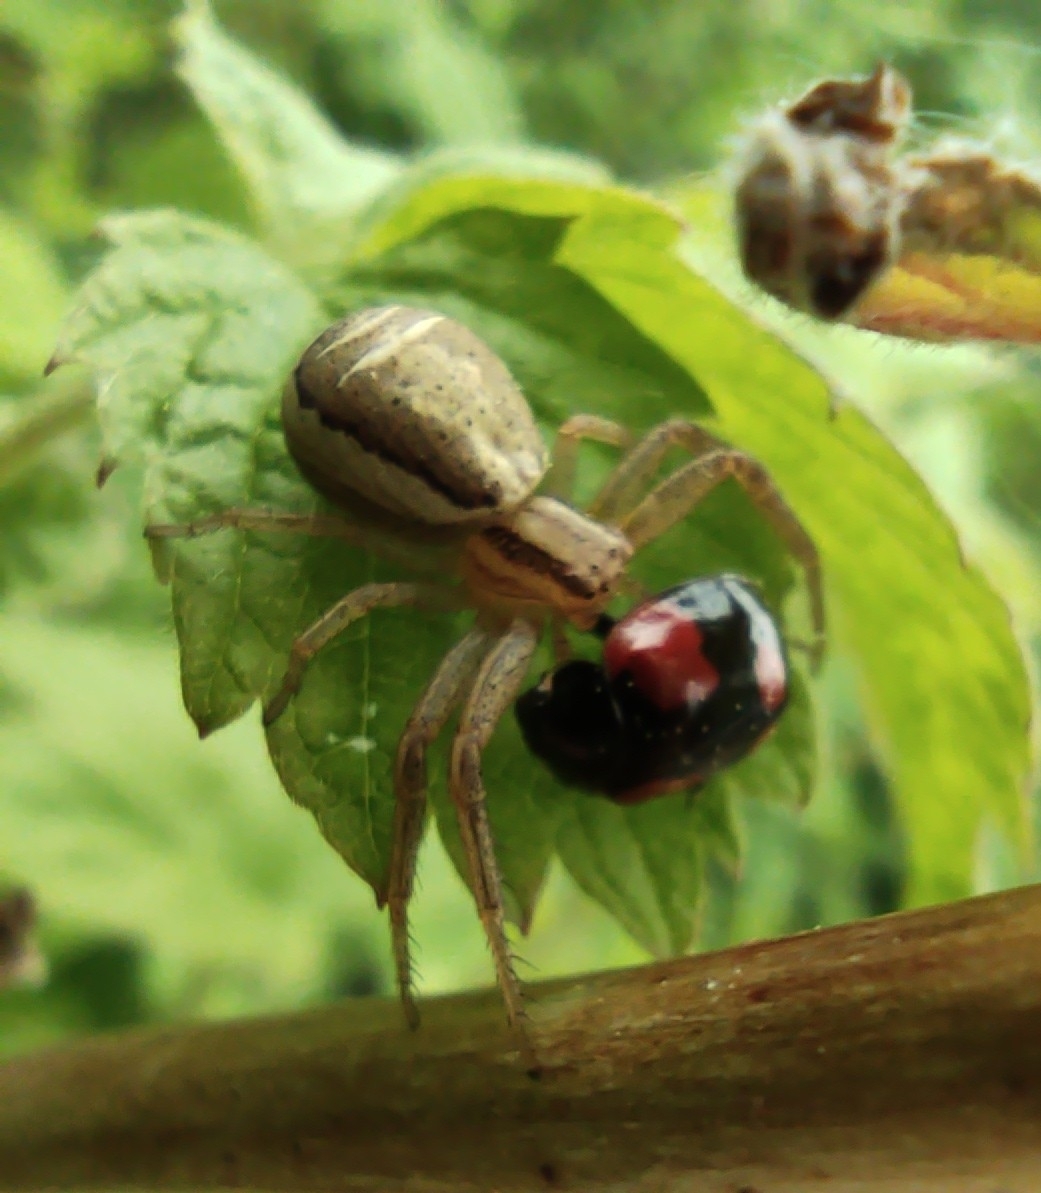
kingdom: Animalia
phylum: Arthropoda
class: Insecta
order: Coleoptera
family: Coccinellidae
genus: Adalia
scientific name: Adalia bipunctata
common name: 2-spot ladybird
